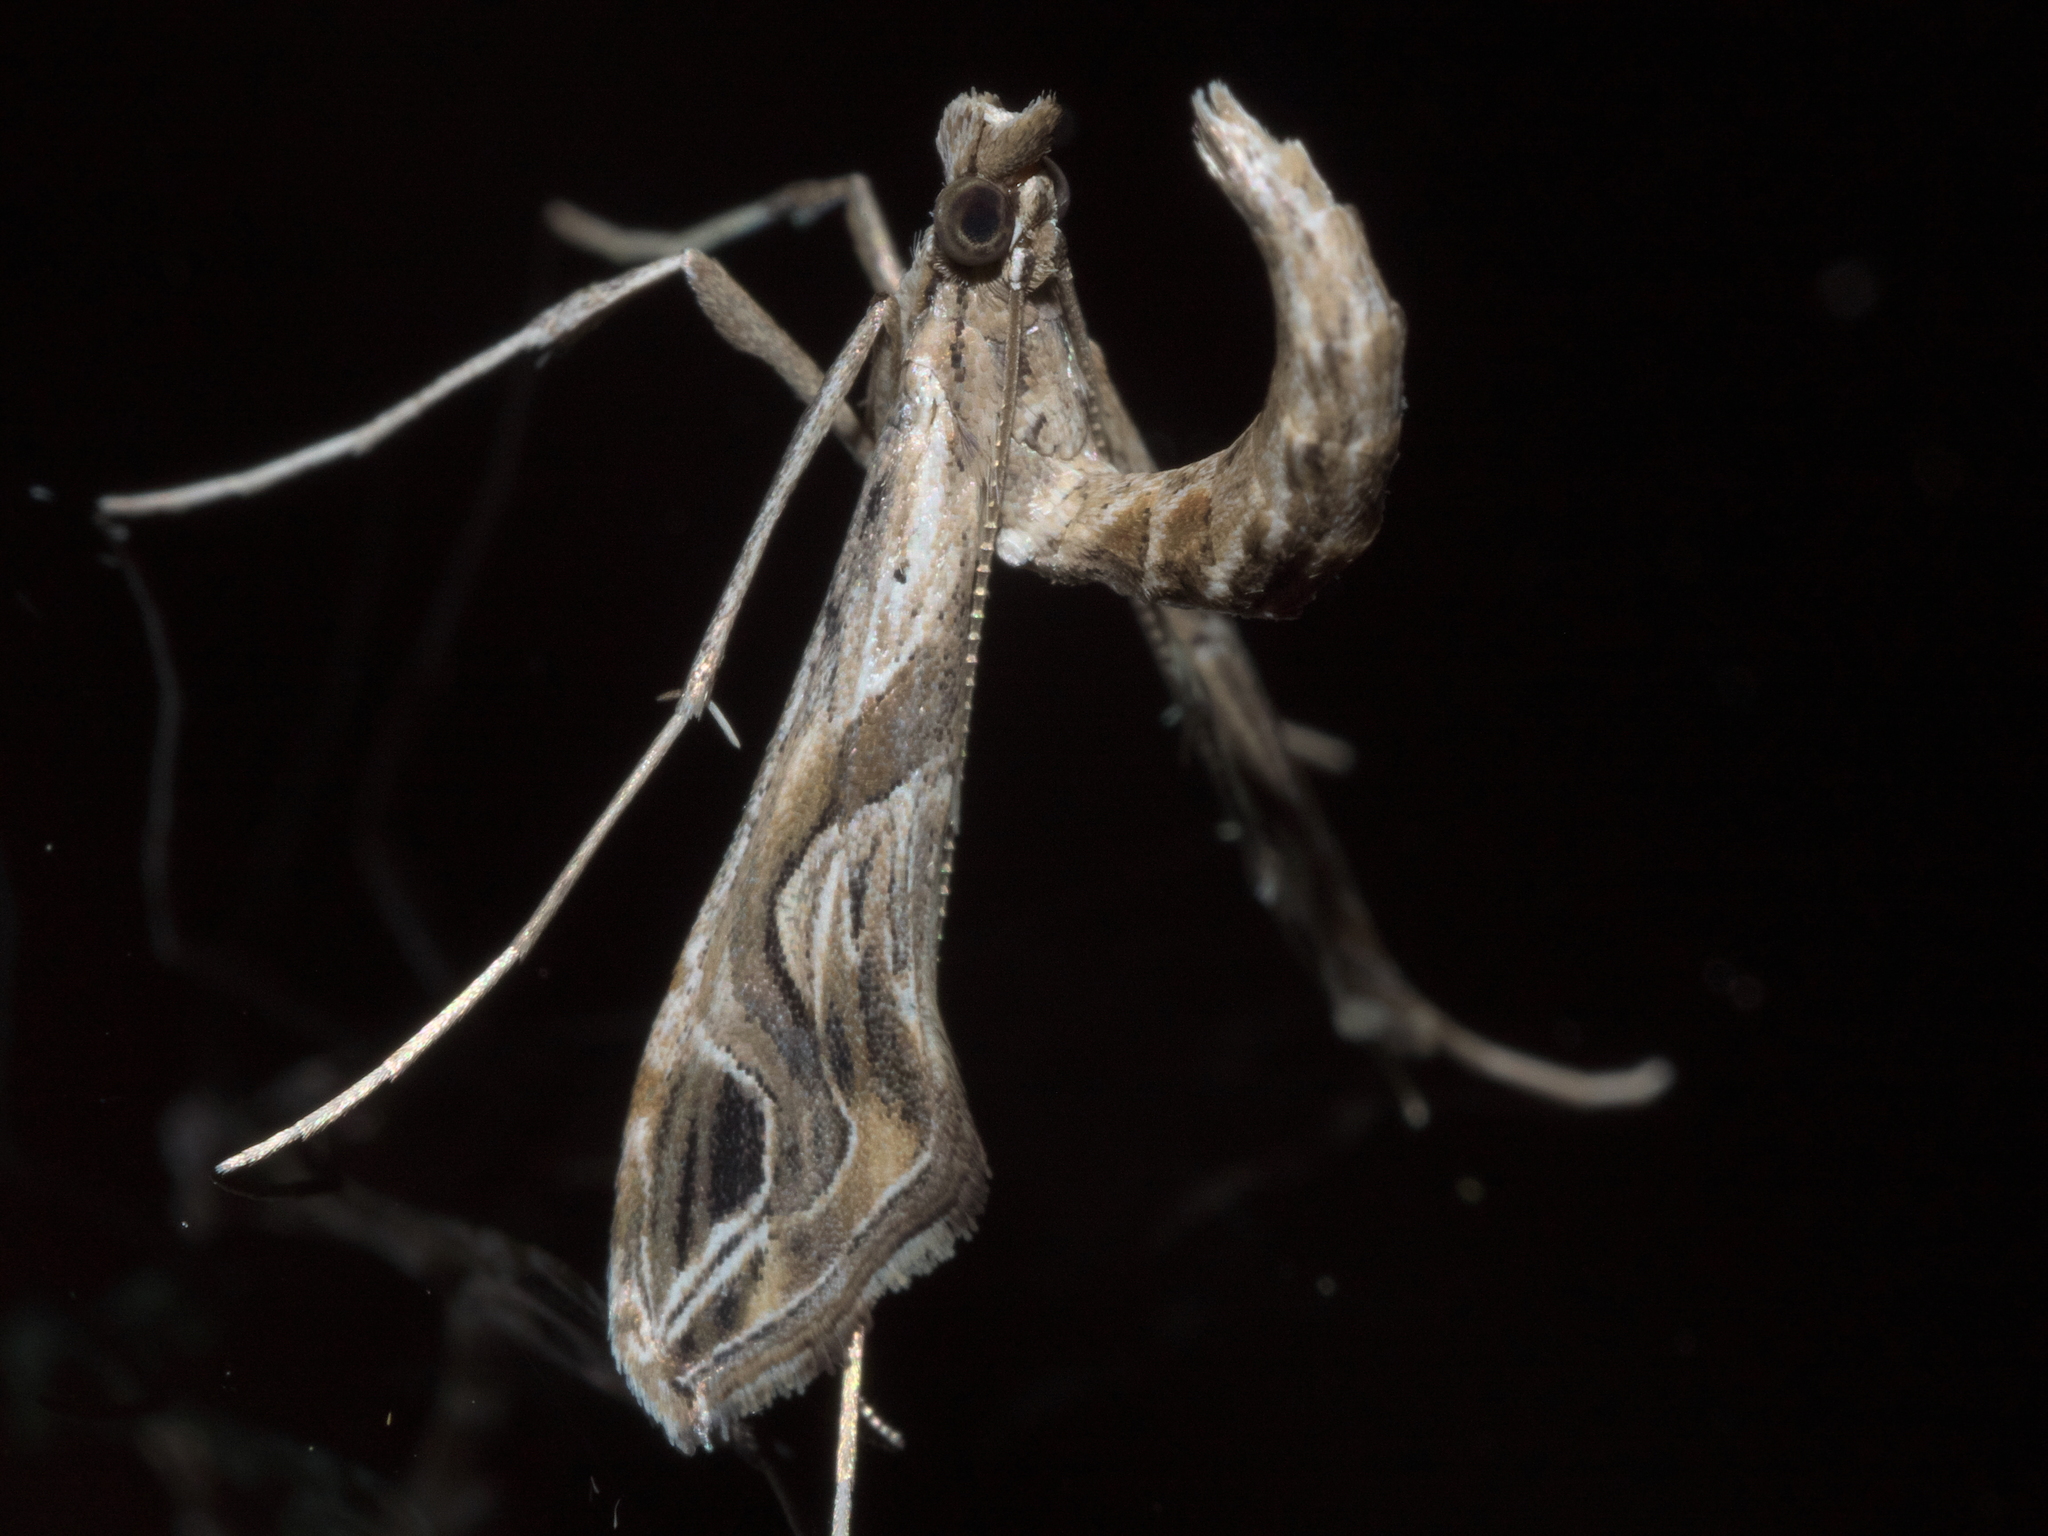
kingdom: Animalia
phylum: Arthropoda
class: Insecta
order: Lepidoptera
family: Crambidae
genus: Lineodes
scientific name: Lineodes integra
